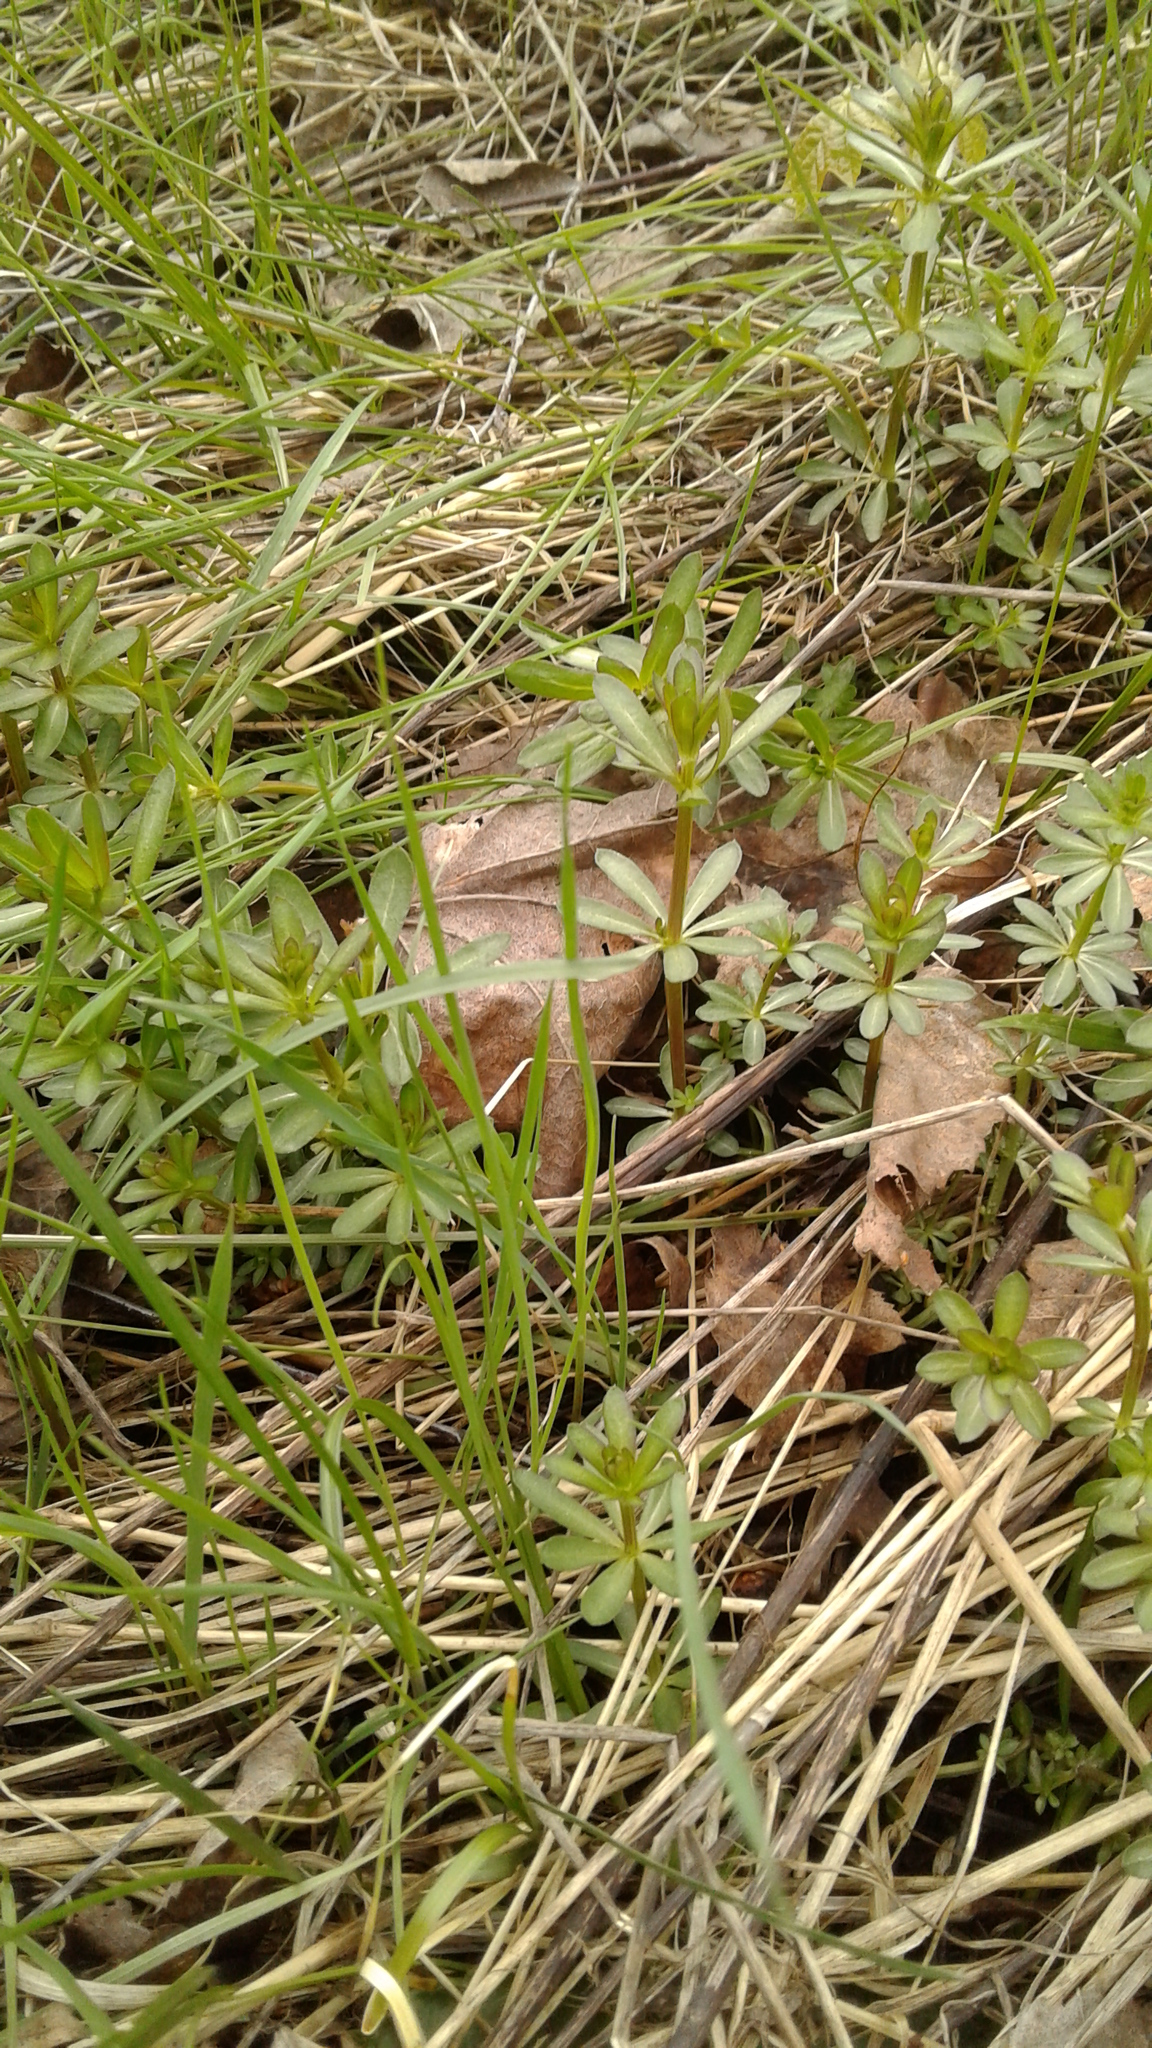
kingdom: Plantae
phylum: Tracheophyta
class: Magnoliopsida
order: Gentianales
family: Rubiaceae
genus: Galium
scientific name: Galium mollugo
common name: Hedge bedstraw
